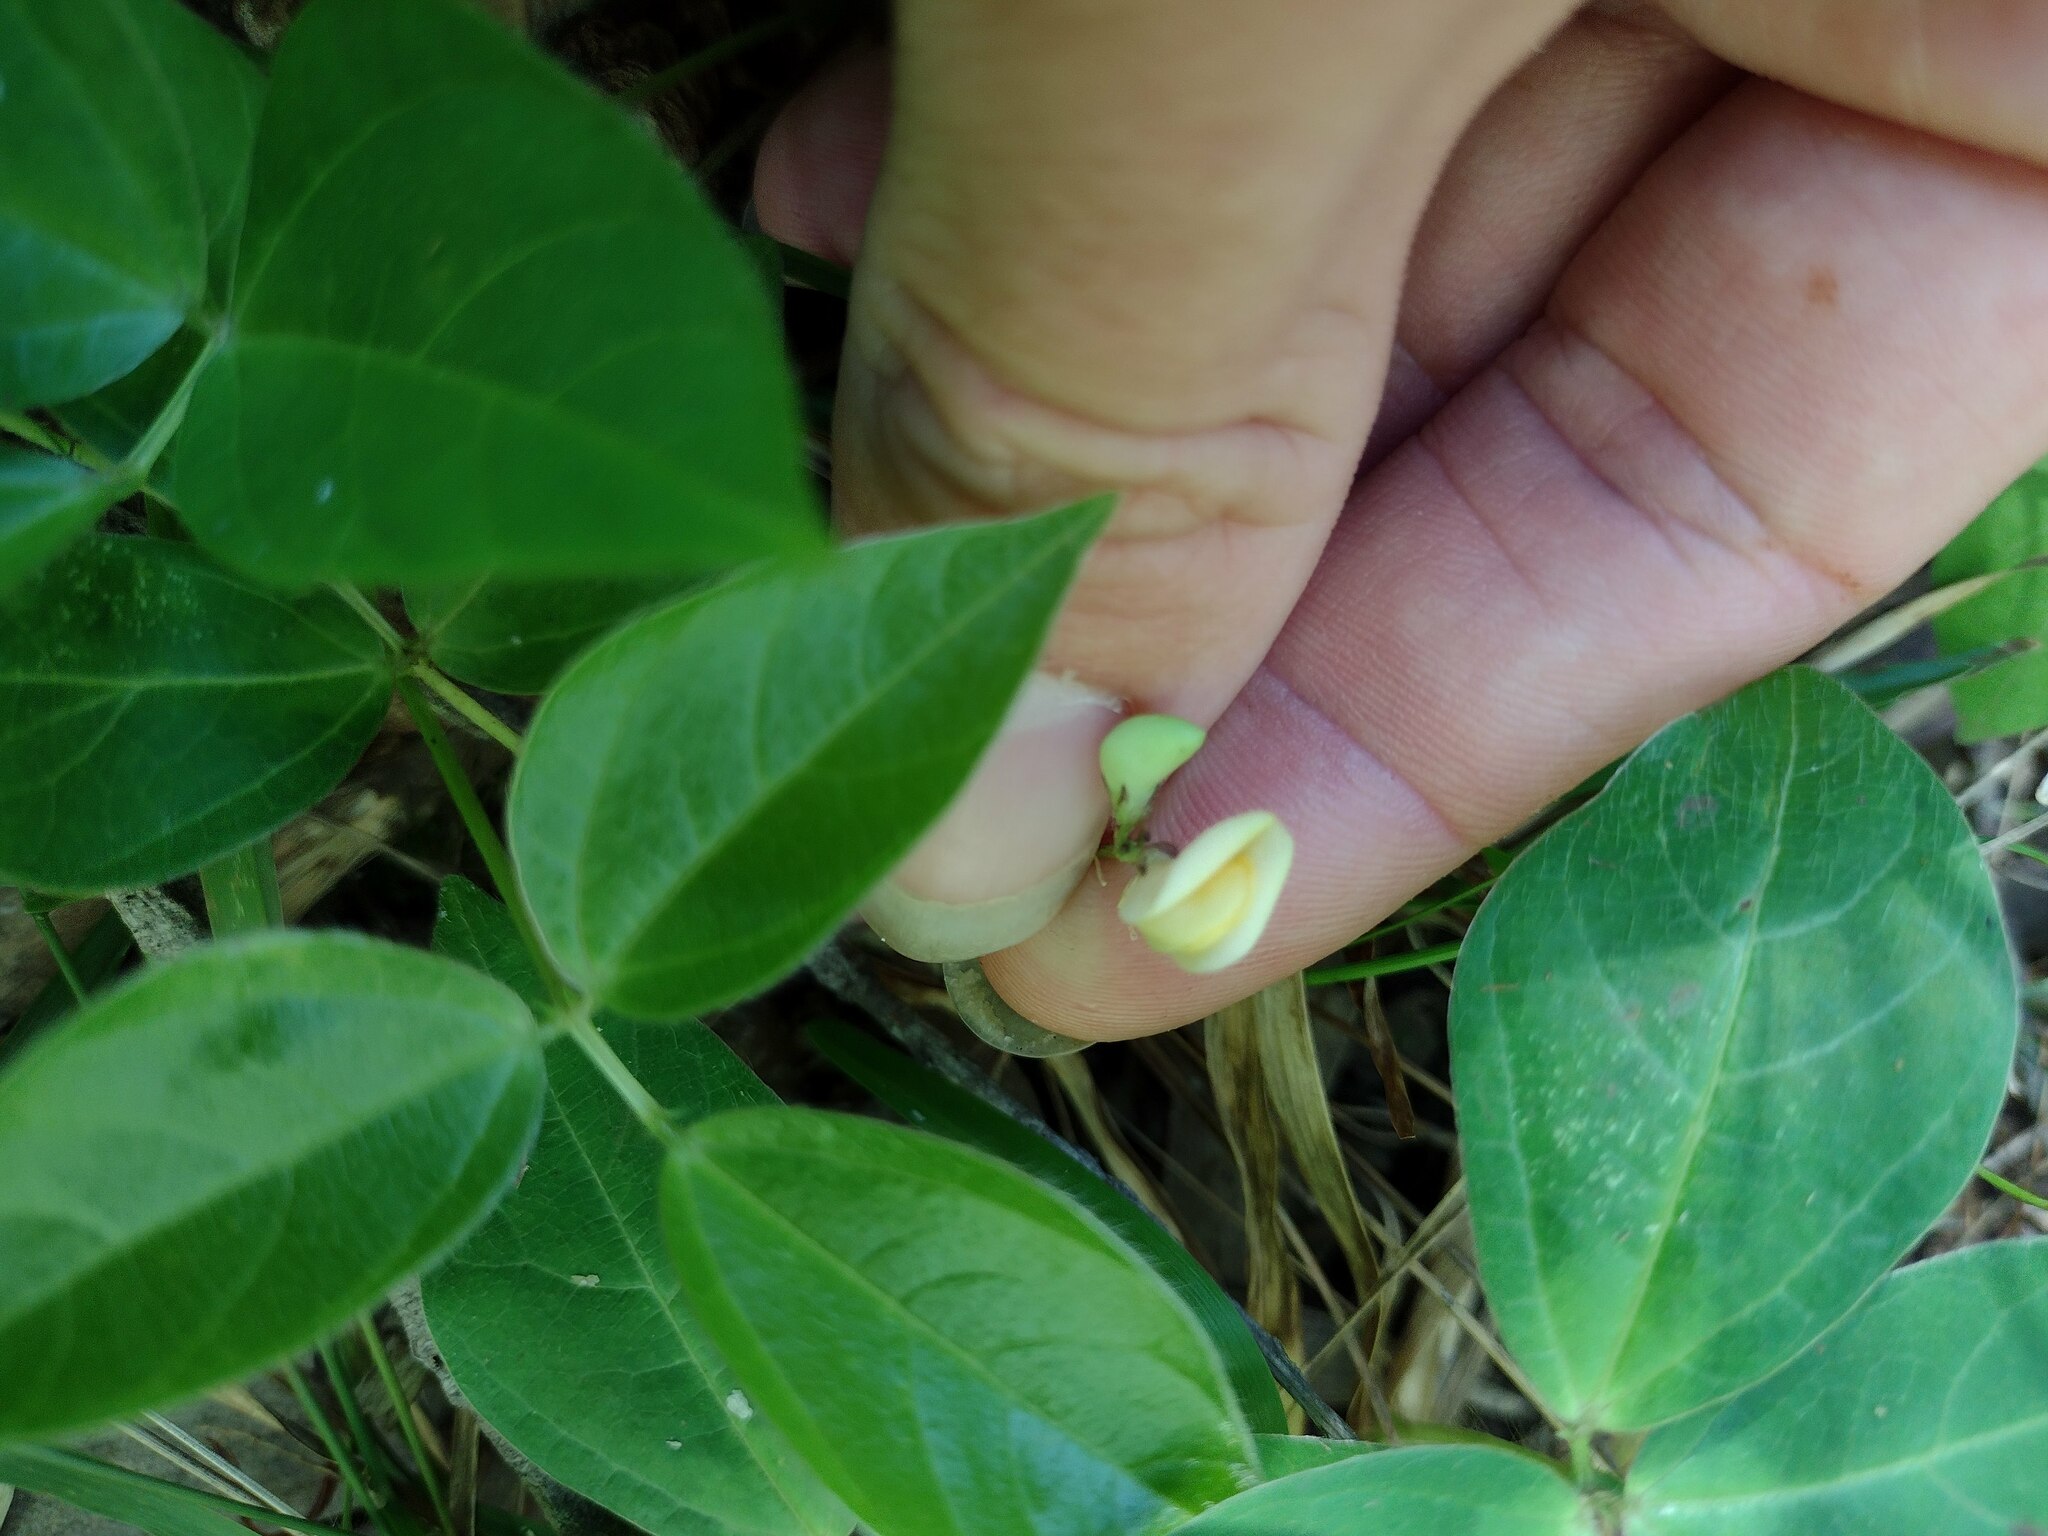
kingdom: Plantae
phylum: Tracheophyta
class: Magnoliopsida
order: Fabales
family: Fabaceae
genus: Vigna
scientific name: Vigna hosei
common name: Sarawak-bean
